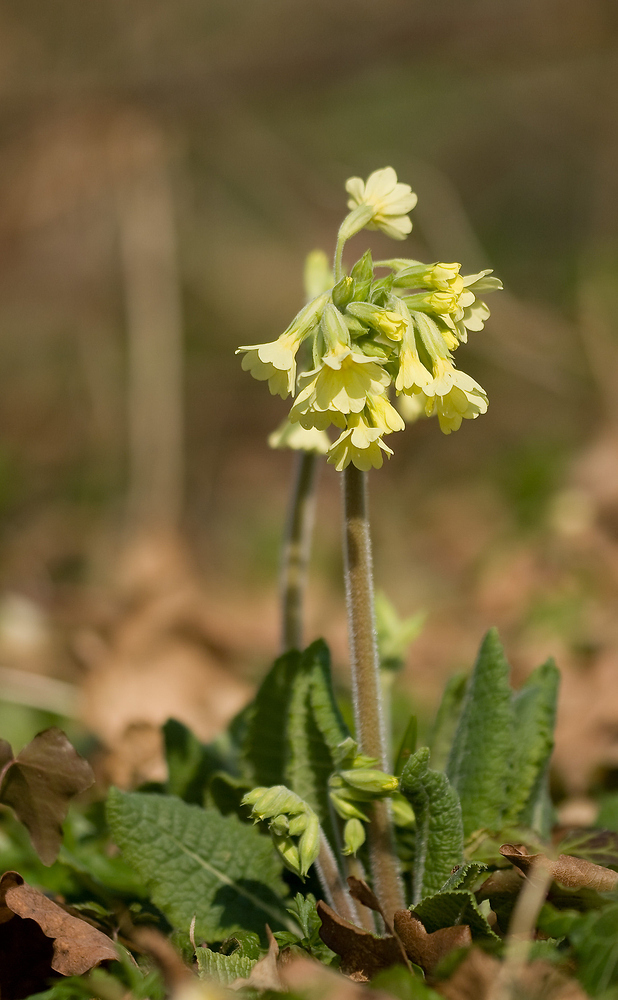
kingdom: Plantae
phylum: Tracheophyta
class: Magnoliopsida
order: Ericales
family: Primulaceae
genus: Primula
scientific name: Primula elatior
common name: Oxlip
